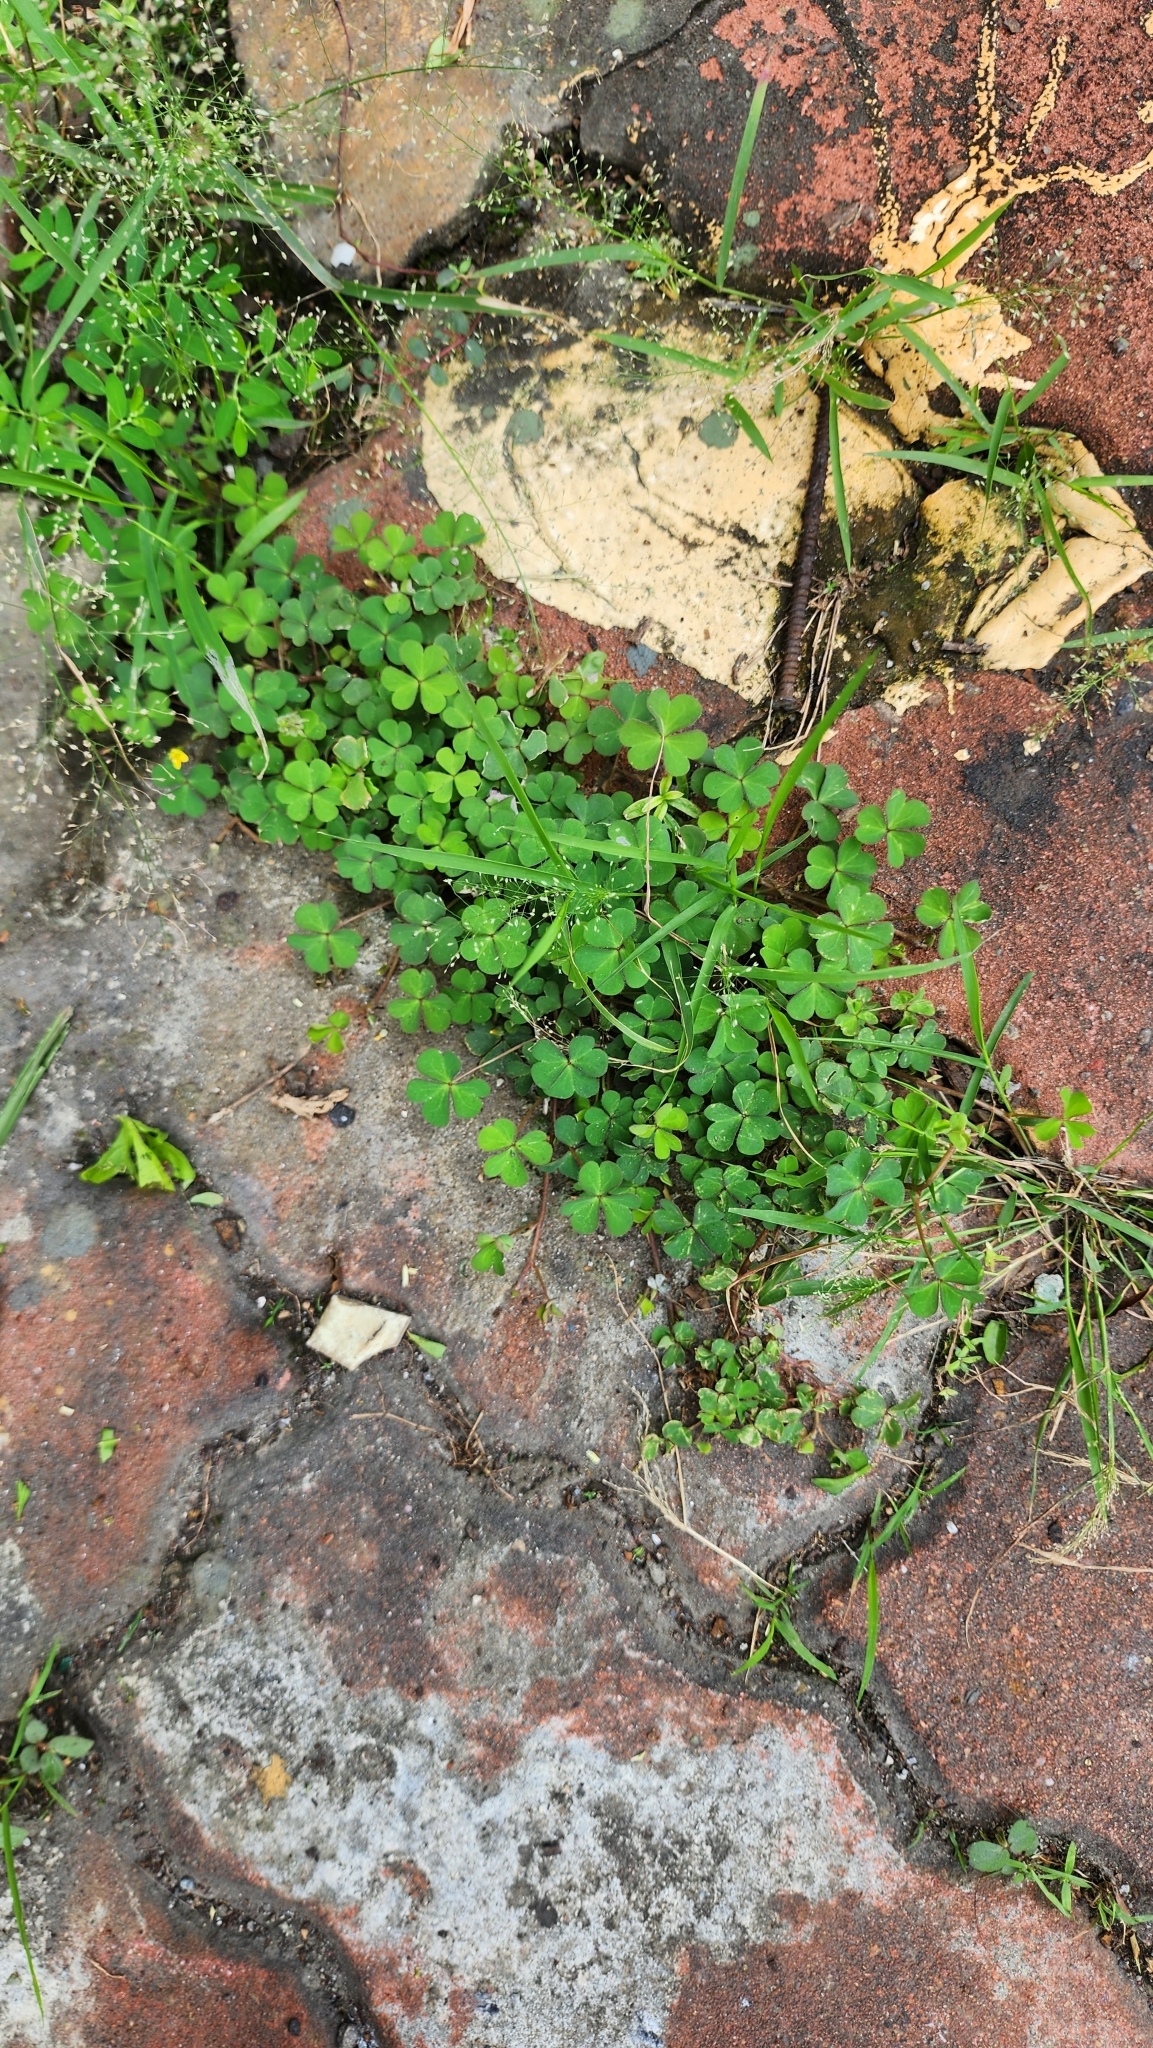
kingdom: Plantae
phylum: Tracheophyta
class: Magnoliopsida
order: Oxalidales
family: Oxalidaceae
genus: Oxalis
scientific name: Oxalis corniculata
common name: Procumbent yellow-sorrel
